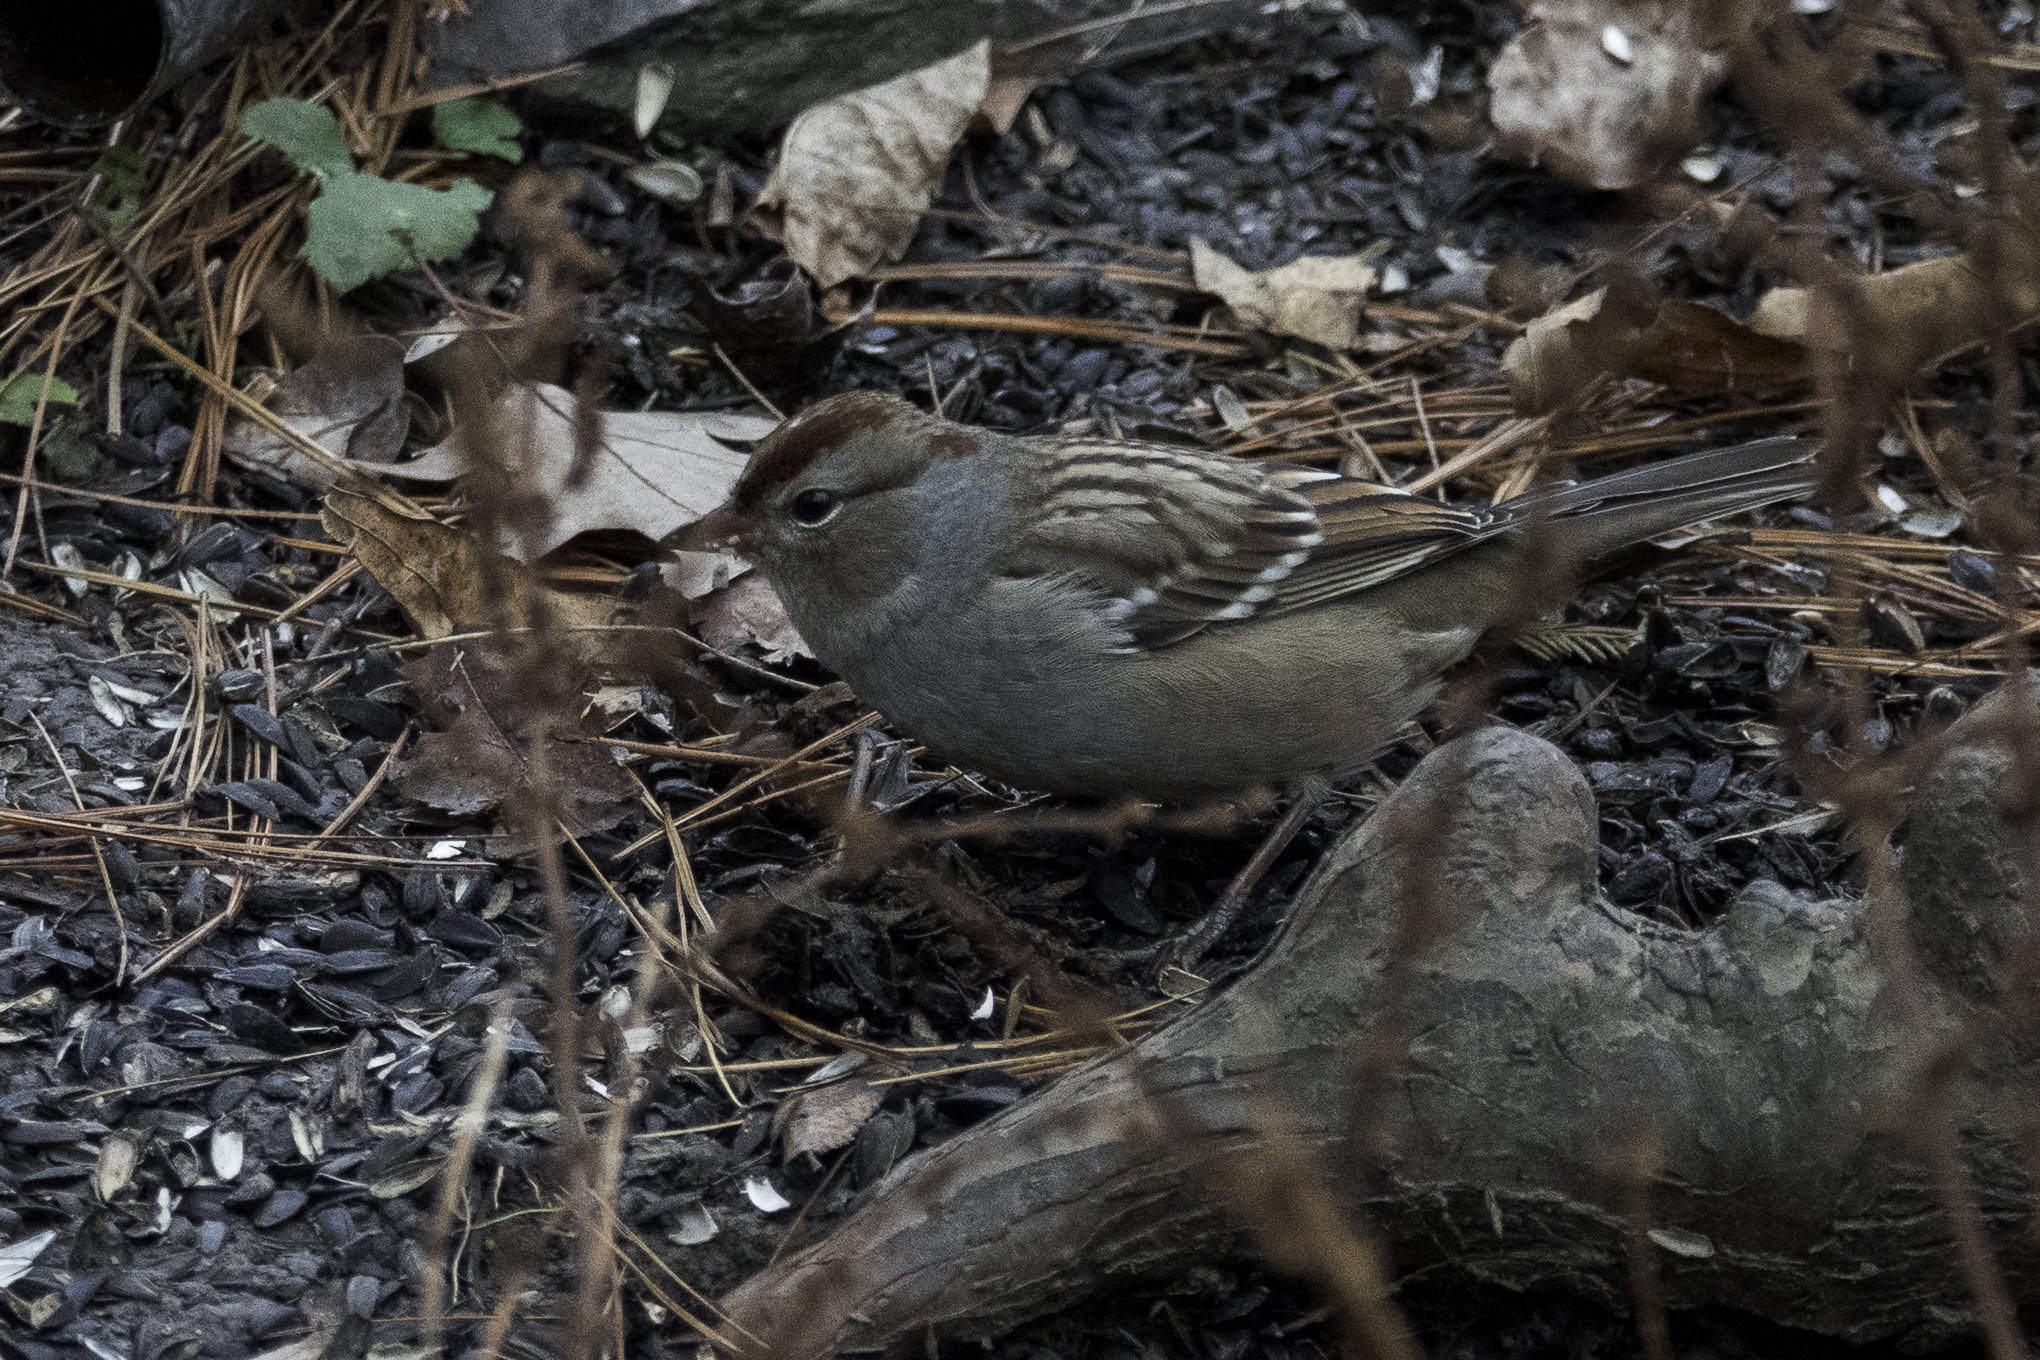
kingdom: Animalia
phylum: Chordata
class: Aves
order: Passeriformes
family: Passerellidae
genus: Zonotrichia
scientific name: Zonotrichia leucophrys
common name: White-crowned sparrow
